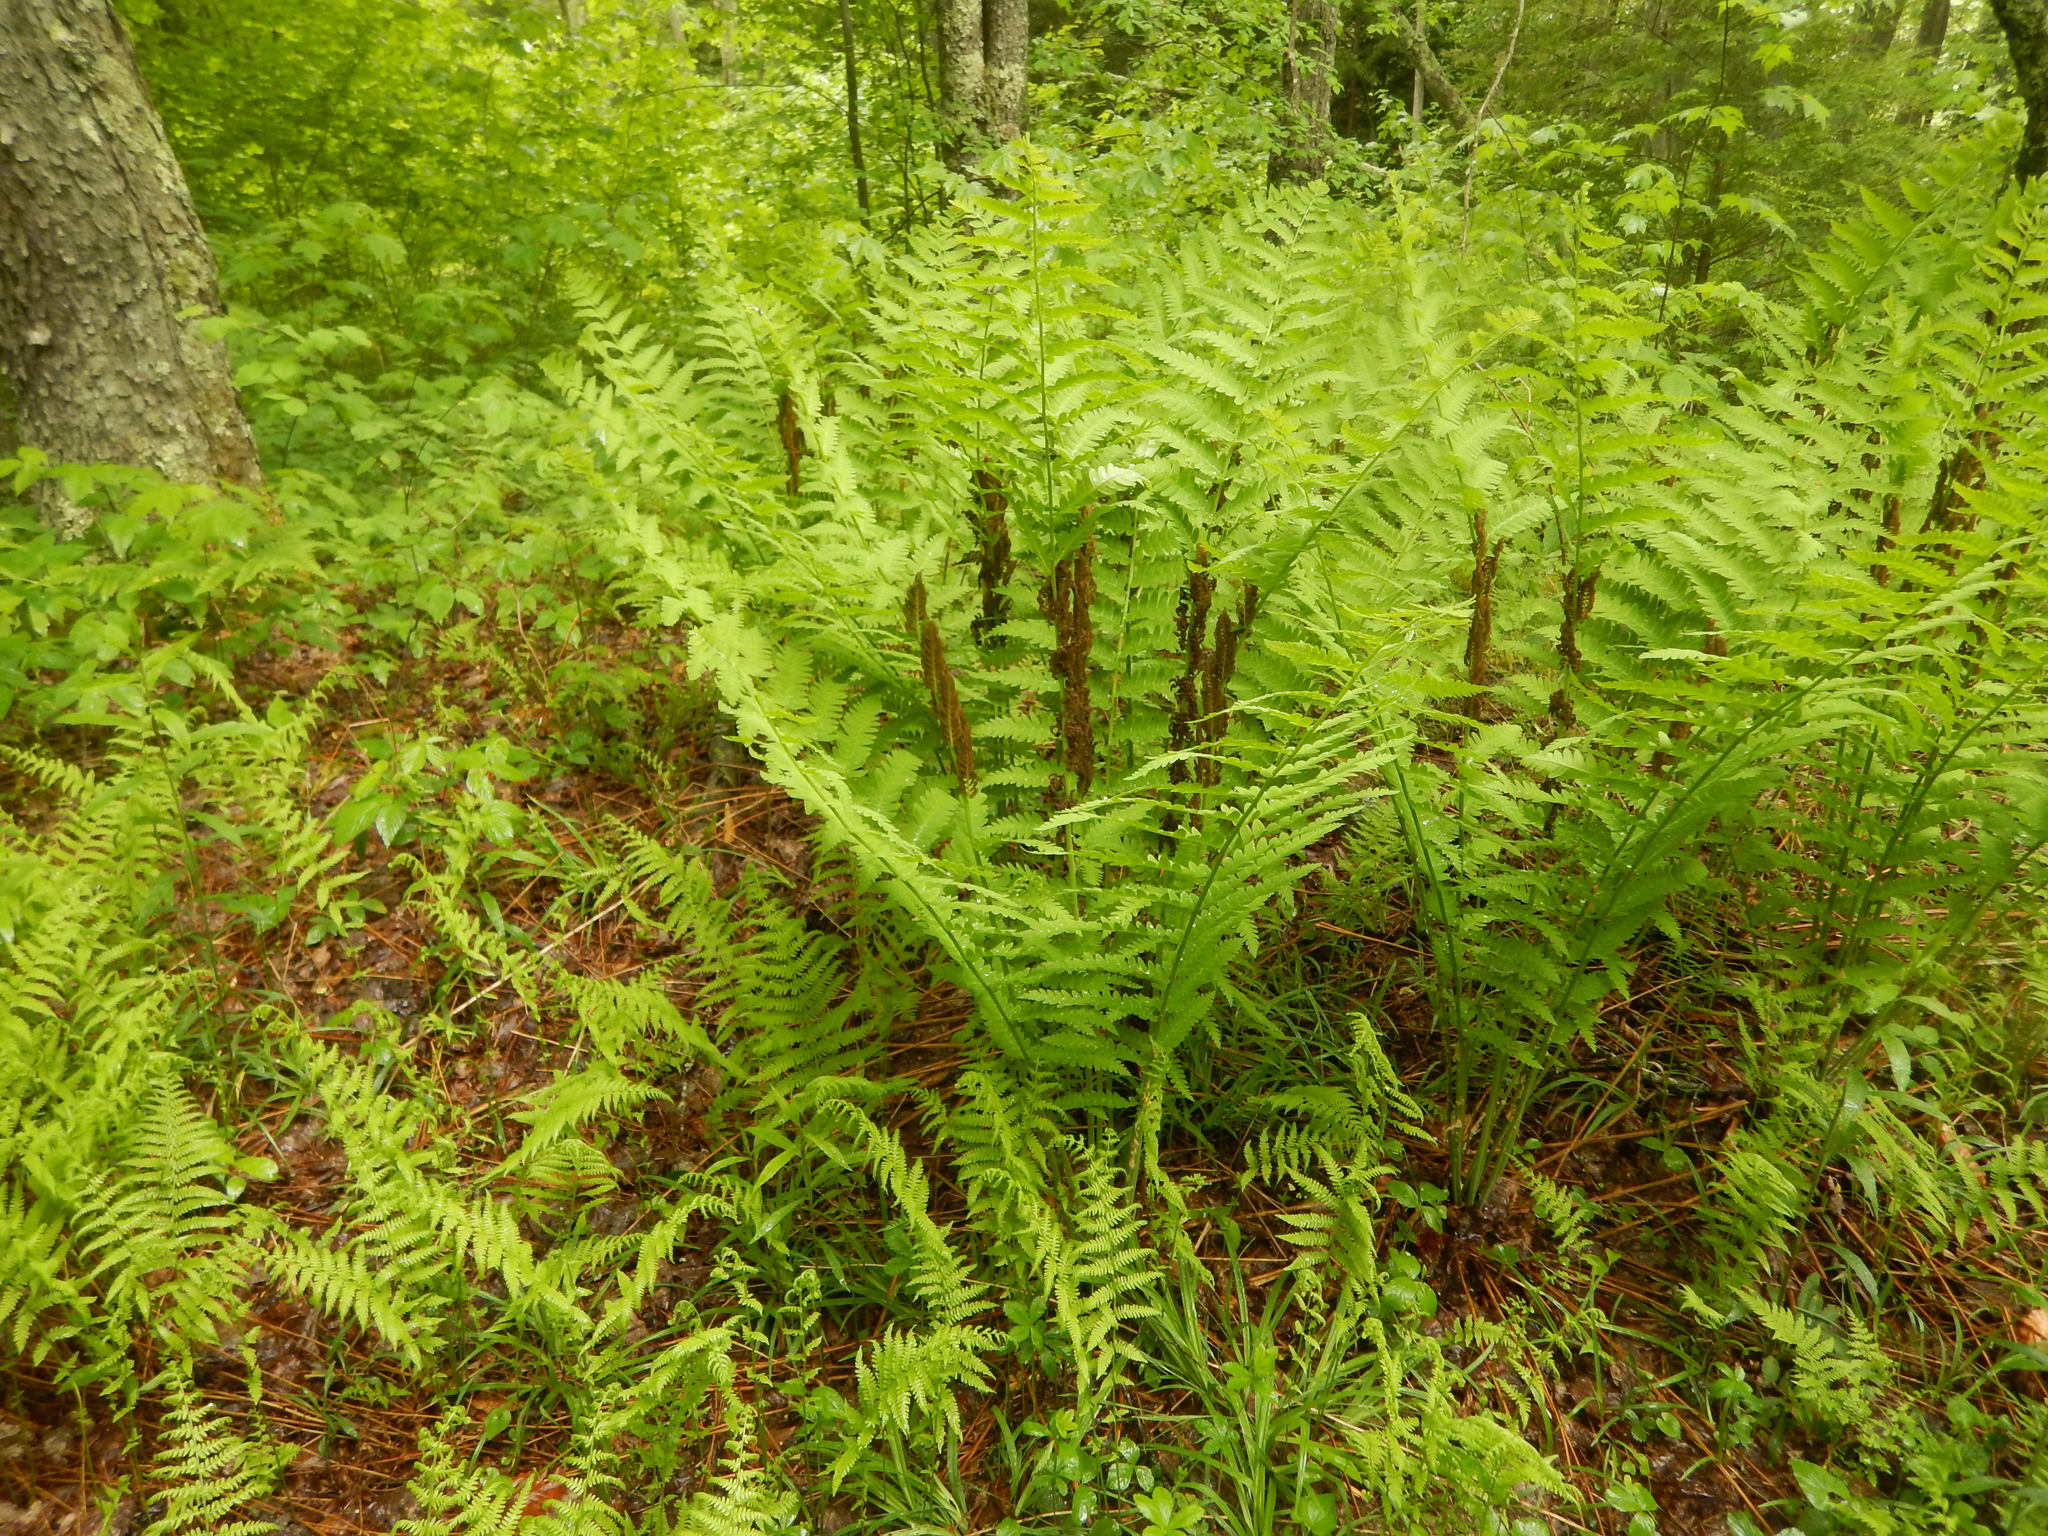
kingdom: Plantae
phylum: Tracheophyta
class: Polypodiopsida
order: Osmundales
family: Osmundaceae
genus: Claytosmunda
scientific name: Claytosmunda claytoniana
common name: Clayton's fern
